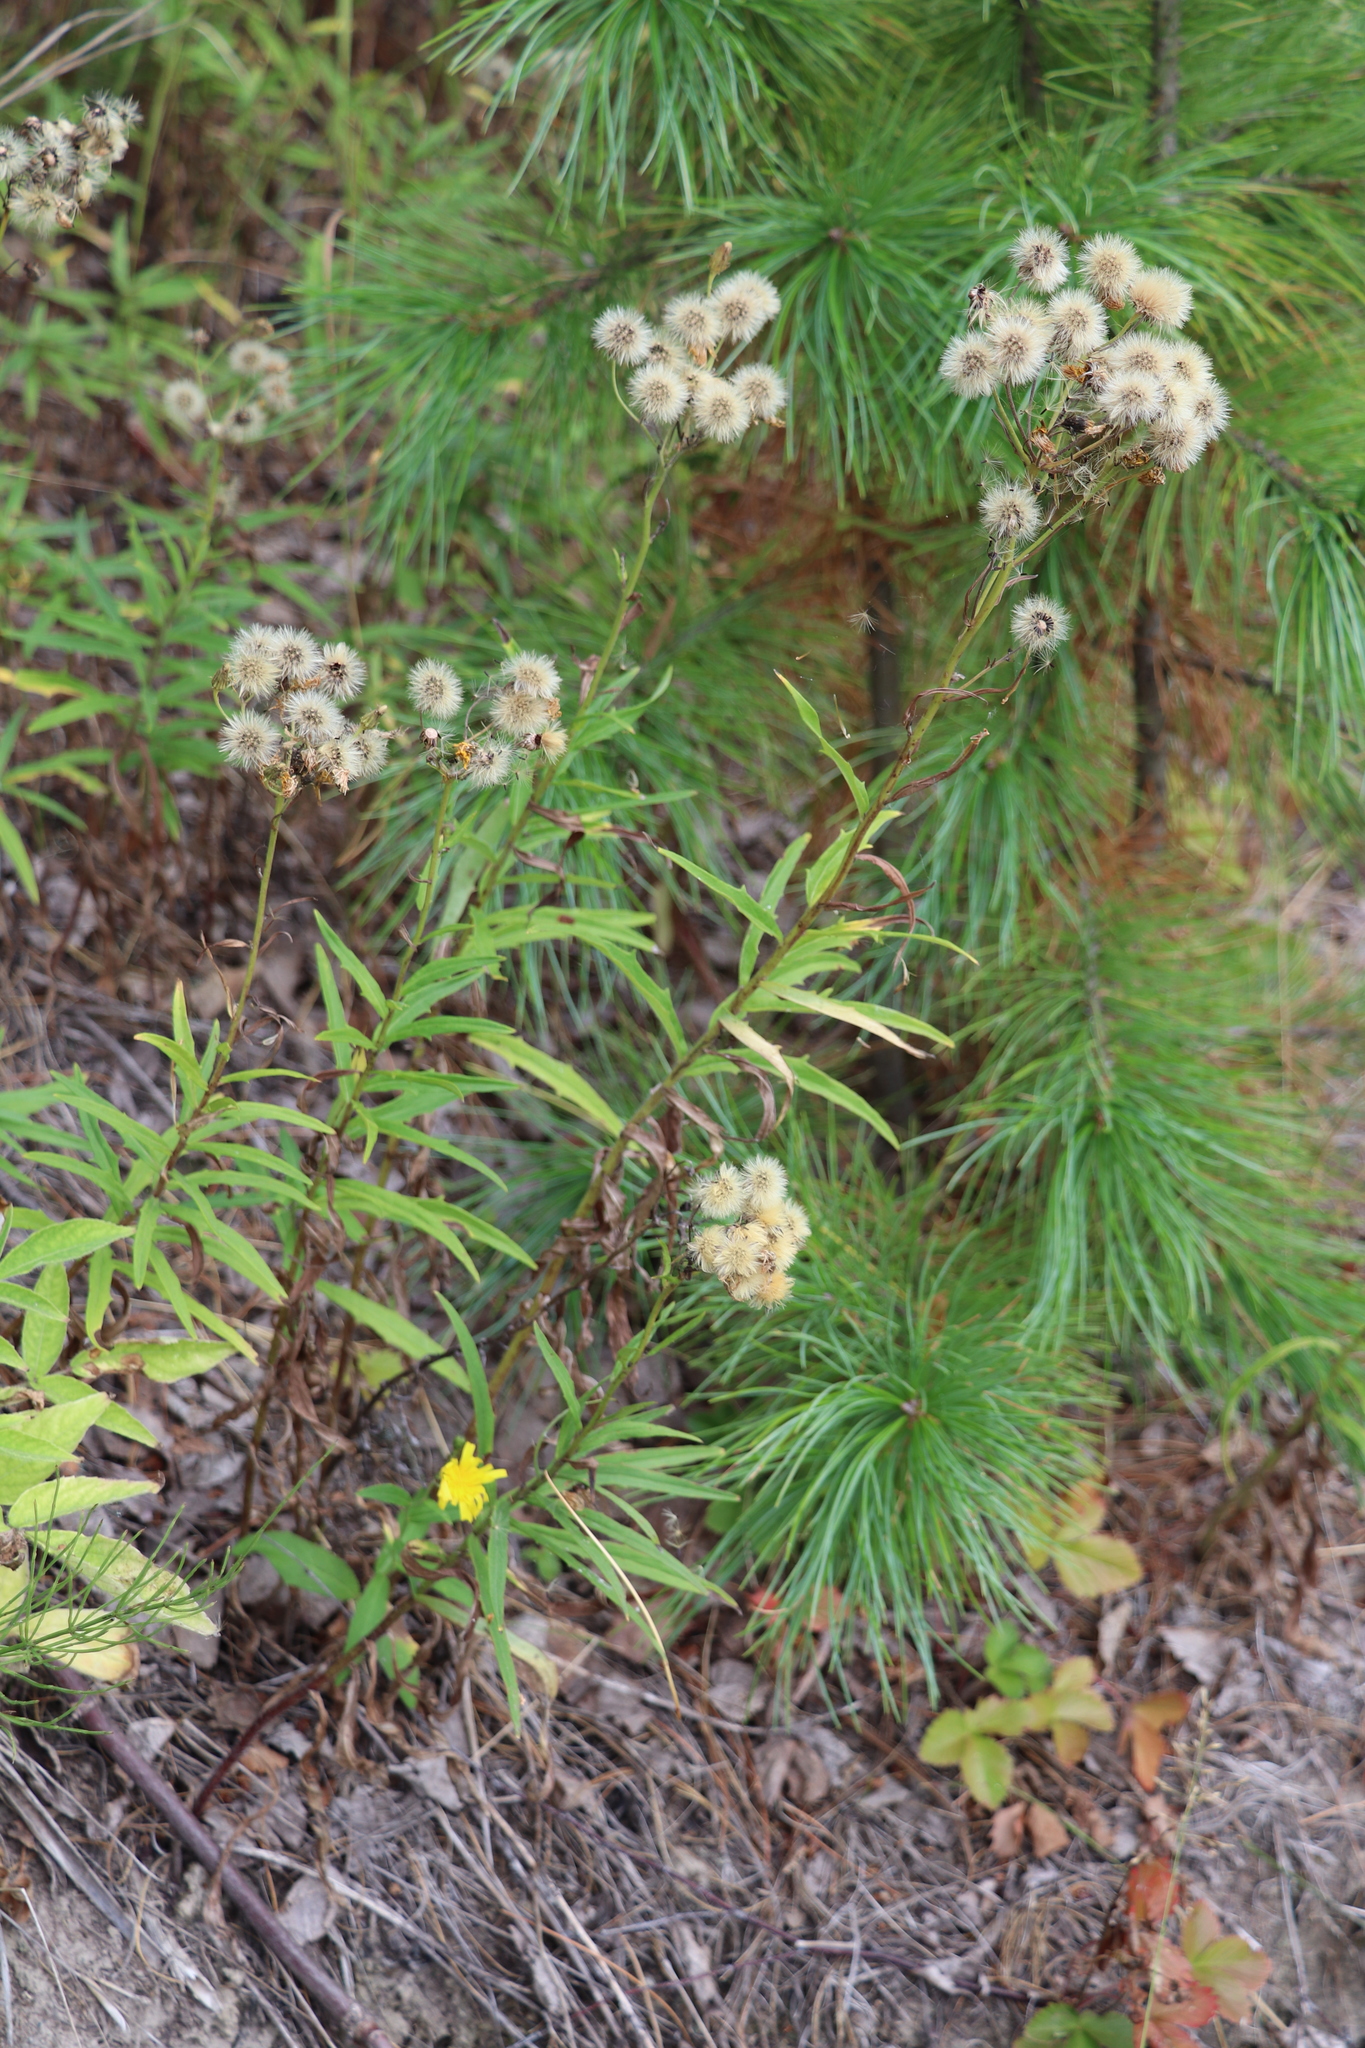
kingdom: Plantae
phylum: Tracheophyta
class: Magnoliopsida
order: Asterales
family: Asteraceae
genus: Hieracium
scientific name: Hieracium umbellatum
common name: Northern hawkweed
